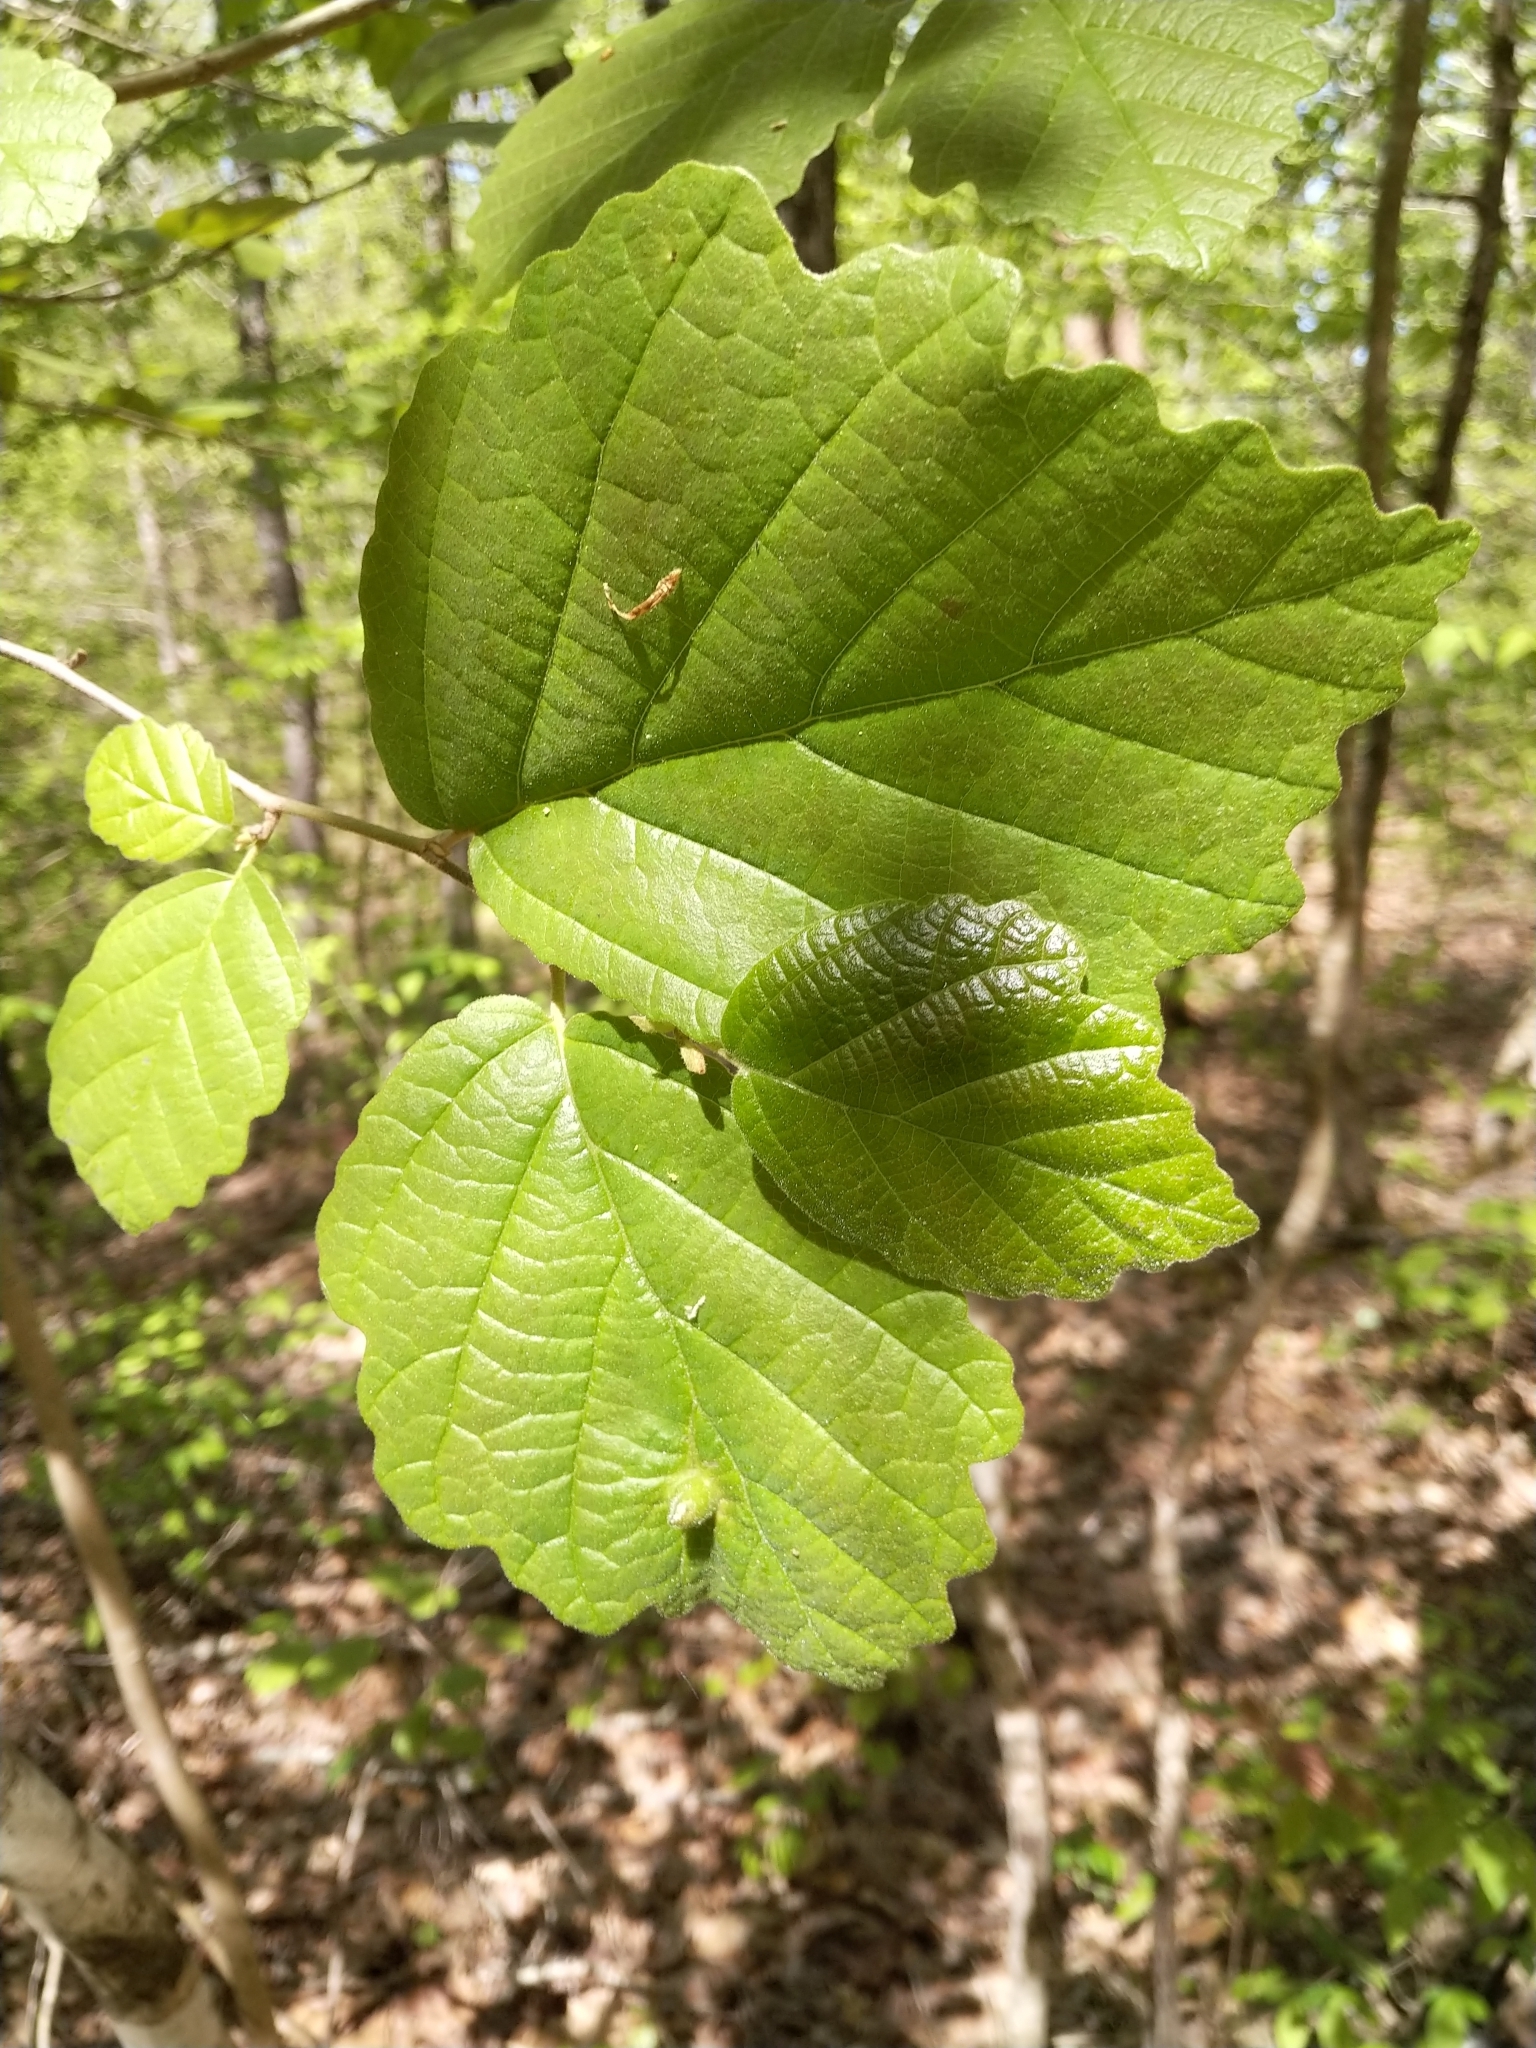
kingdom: Plantae
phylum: Tracheophyta
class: Magnoliopsida
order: Saxifragales
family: Hamamelidaceae
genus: Hamamelis
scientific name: Hamamelis virginiana
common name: Witch-hazel
